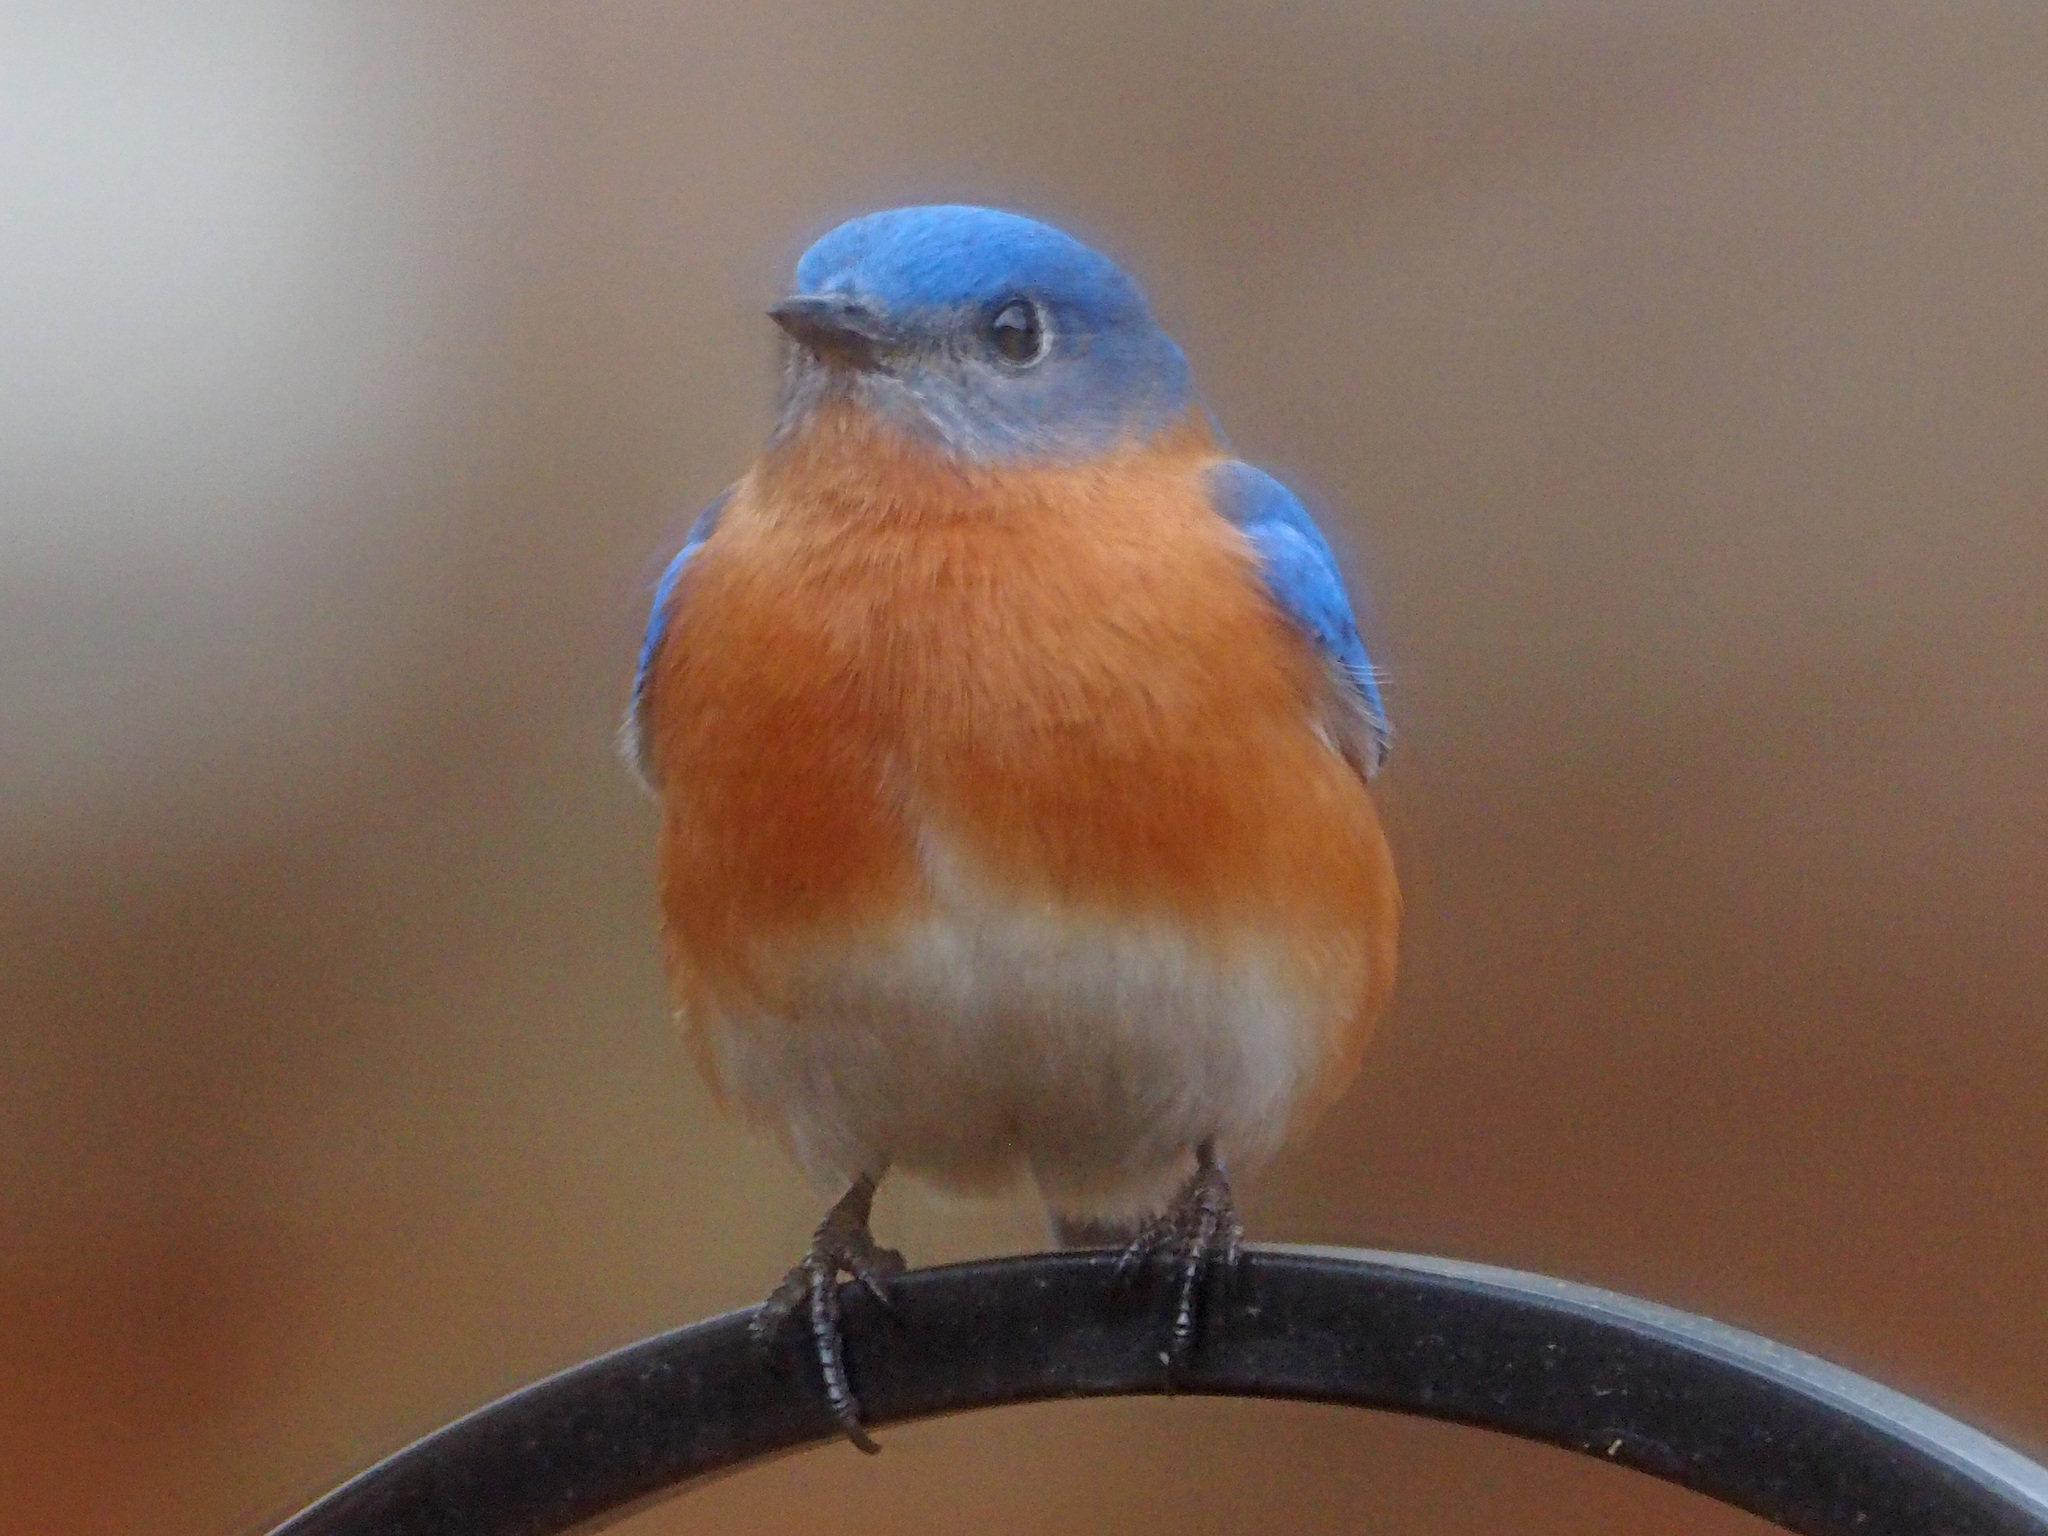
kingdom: Animalia
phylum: Chordata
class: Aves
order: Passeriformes
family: Turdidae
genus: Sialia
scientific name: Sialia sialis
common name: Eastern bluebird
